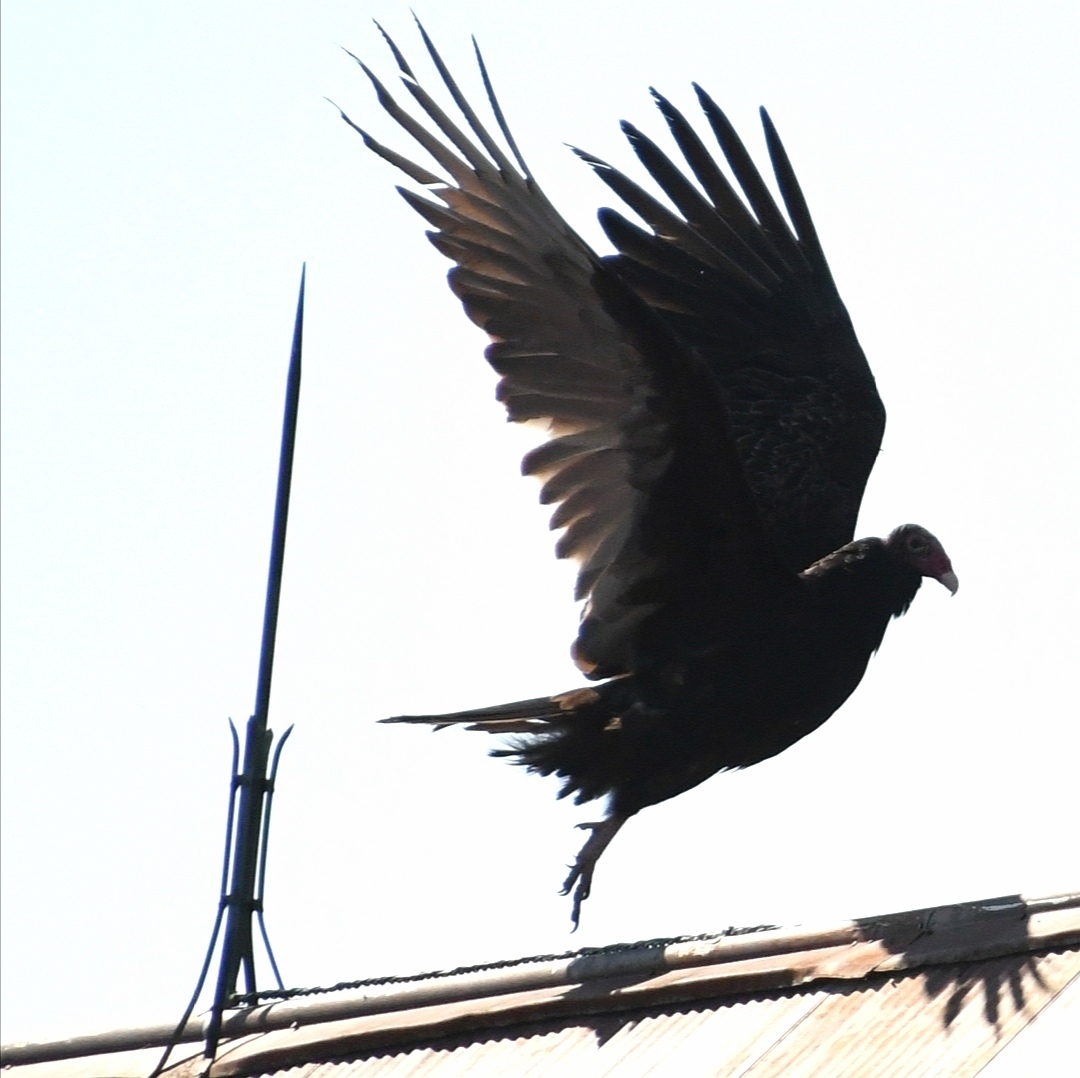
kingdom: Animalia
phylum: Chordata
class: Aves
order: Accipitriformes
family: Cathartidae
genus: Cathartes
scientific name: Cathartes aura
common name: Turkey vulture
